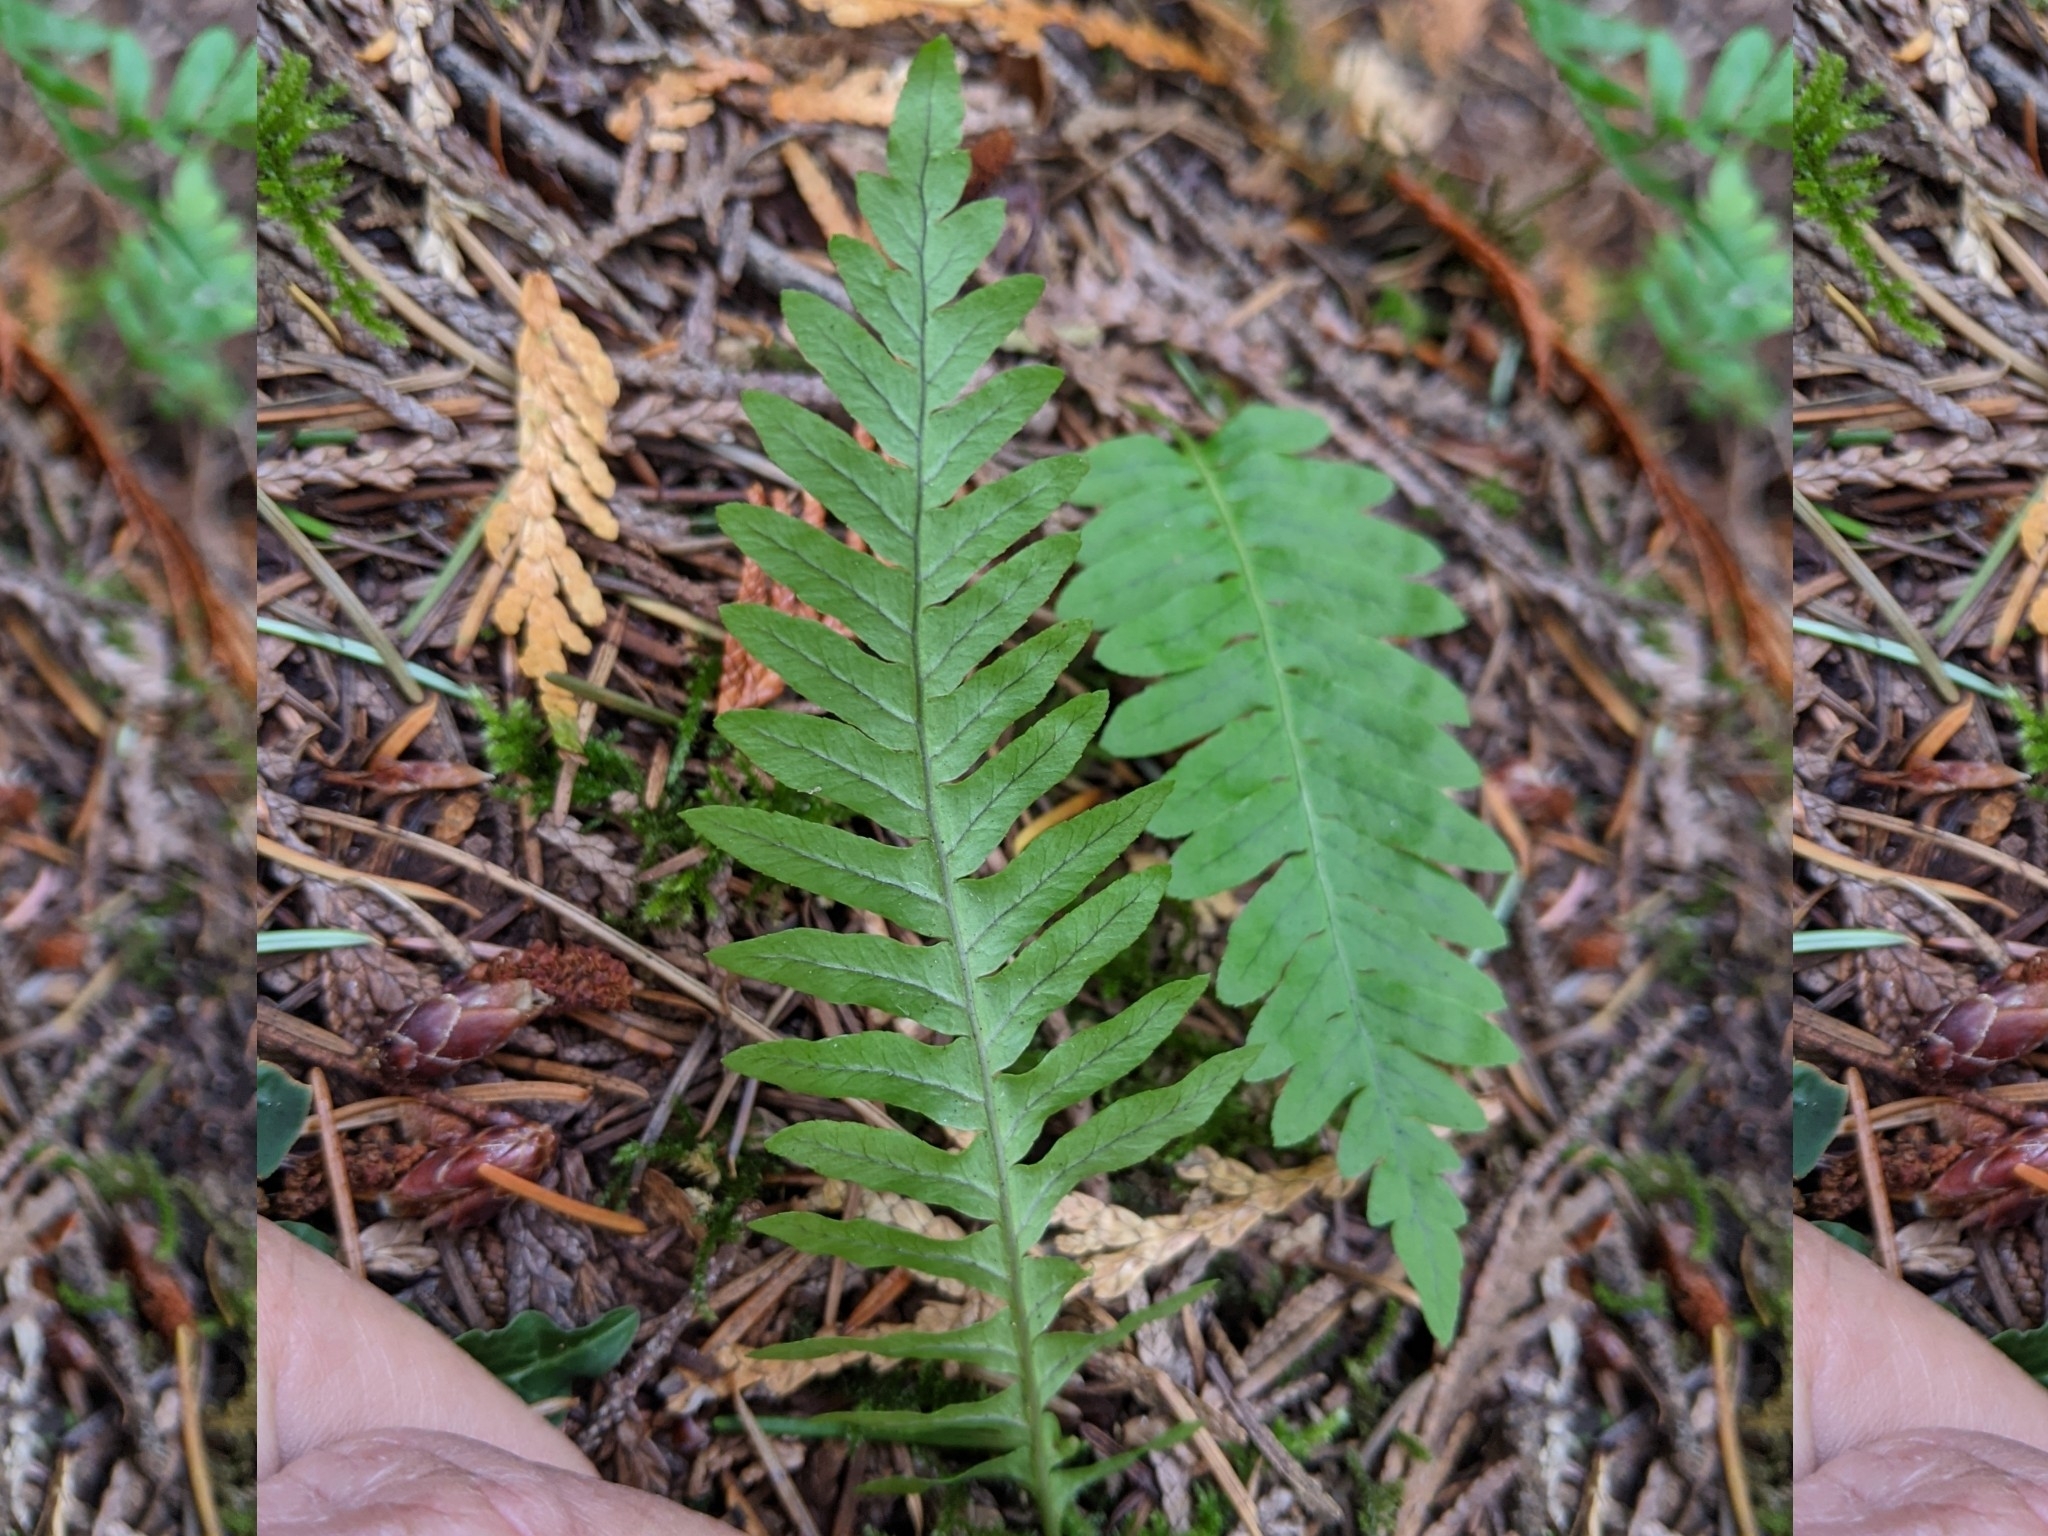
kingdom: Plantae
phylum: Tracheophyta
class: Polypodiopsida
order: Polypodiales
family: Polypodiaceae
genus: Polypodium
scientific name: Polypodium glycyrrhiza
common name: Licorice fern
